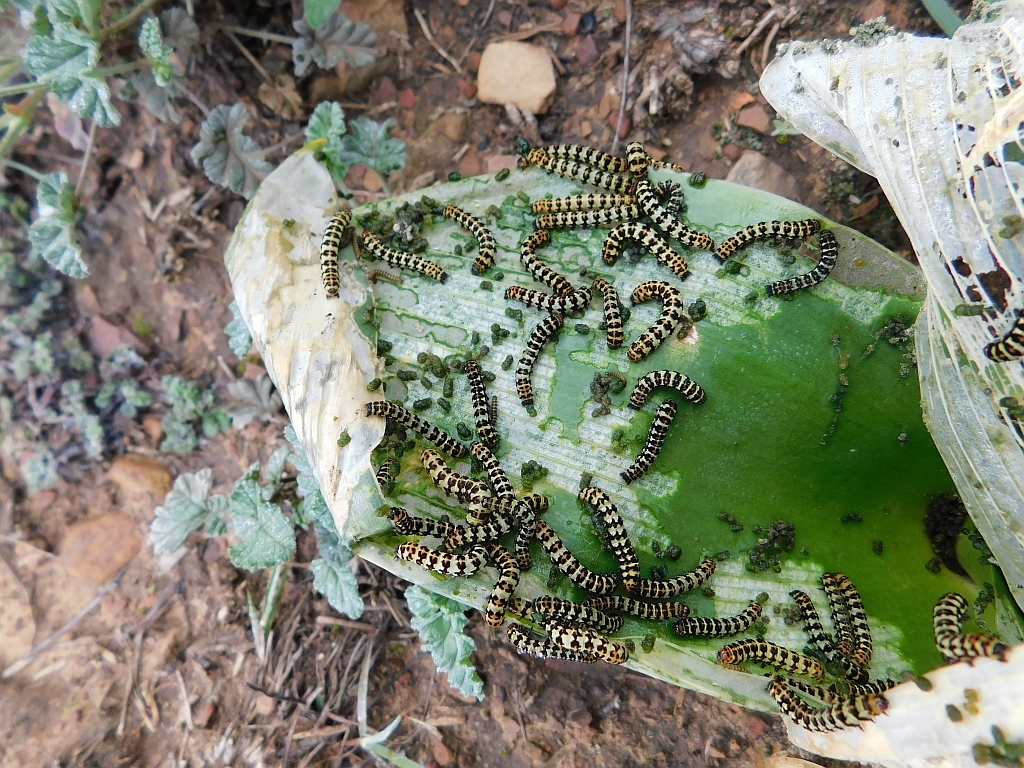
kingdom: Animalia
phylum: Arthropoda
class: Insecta
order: Lepidoptera
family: Noctuidae
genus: Diaphone
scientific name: Diaphone eumela
